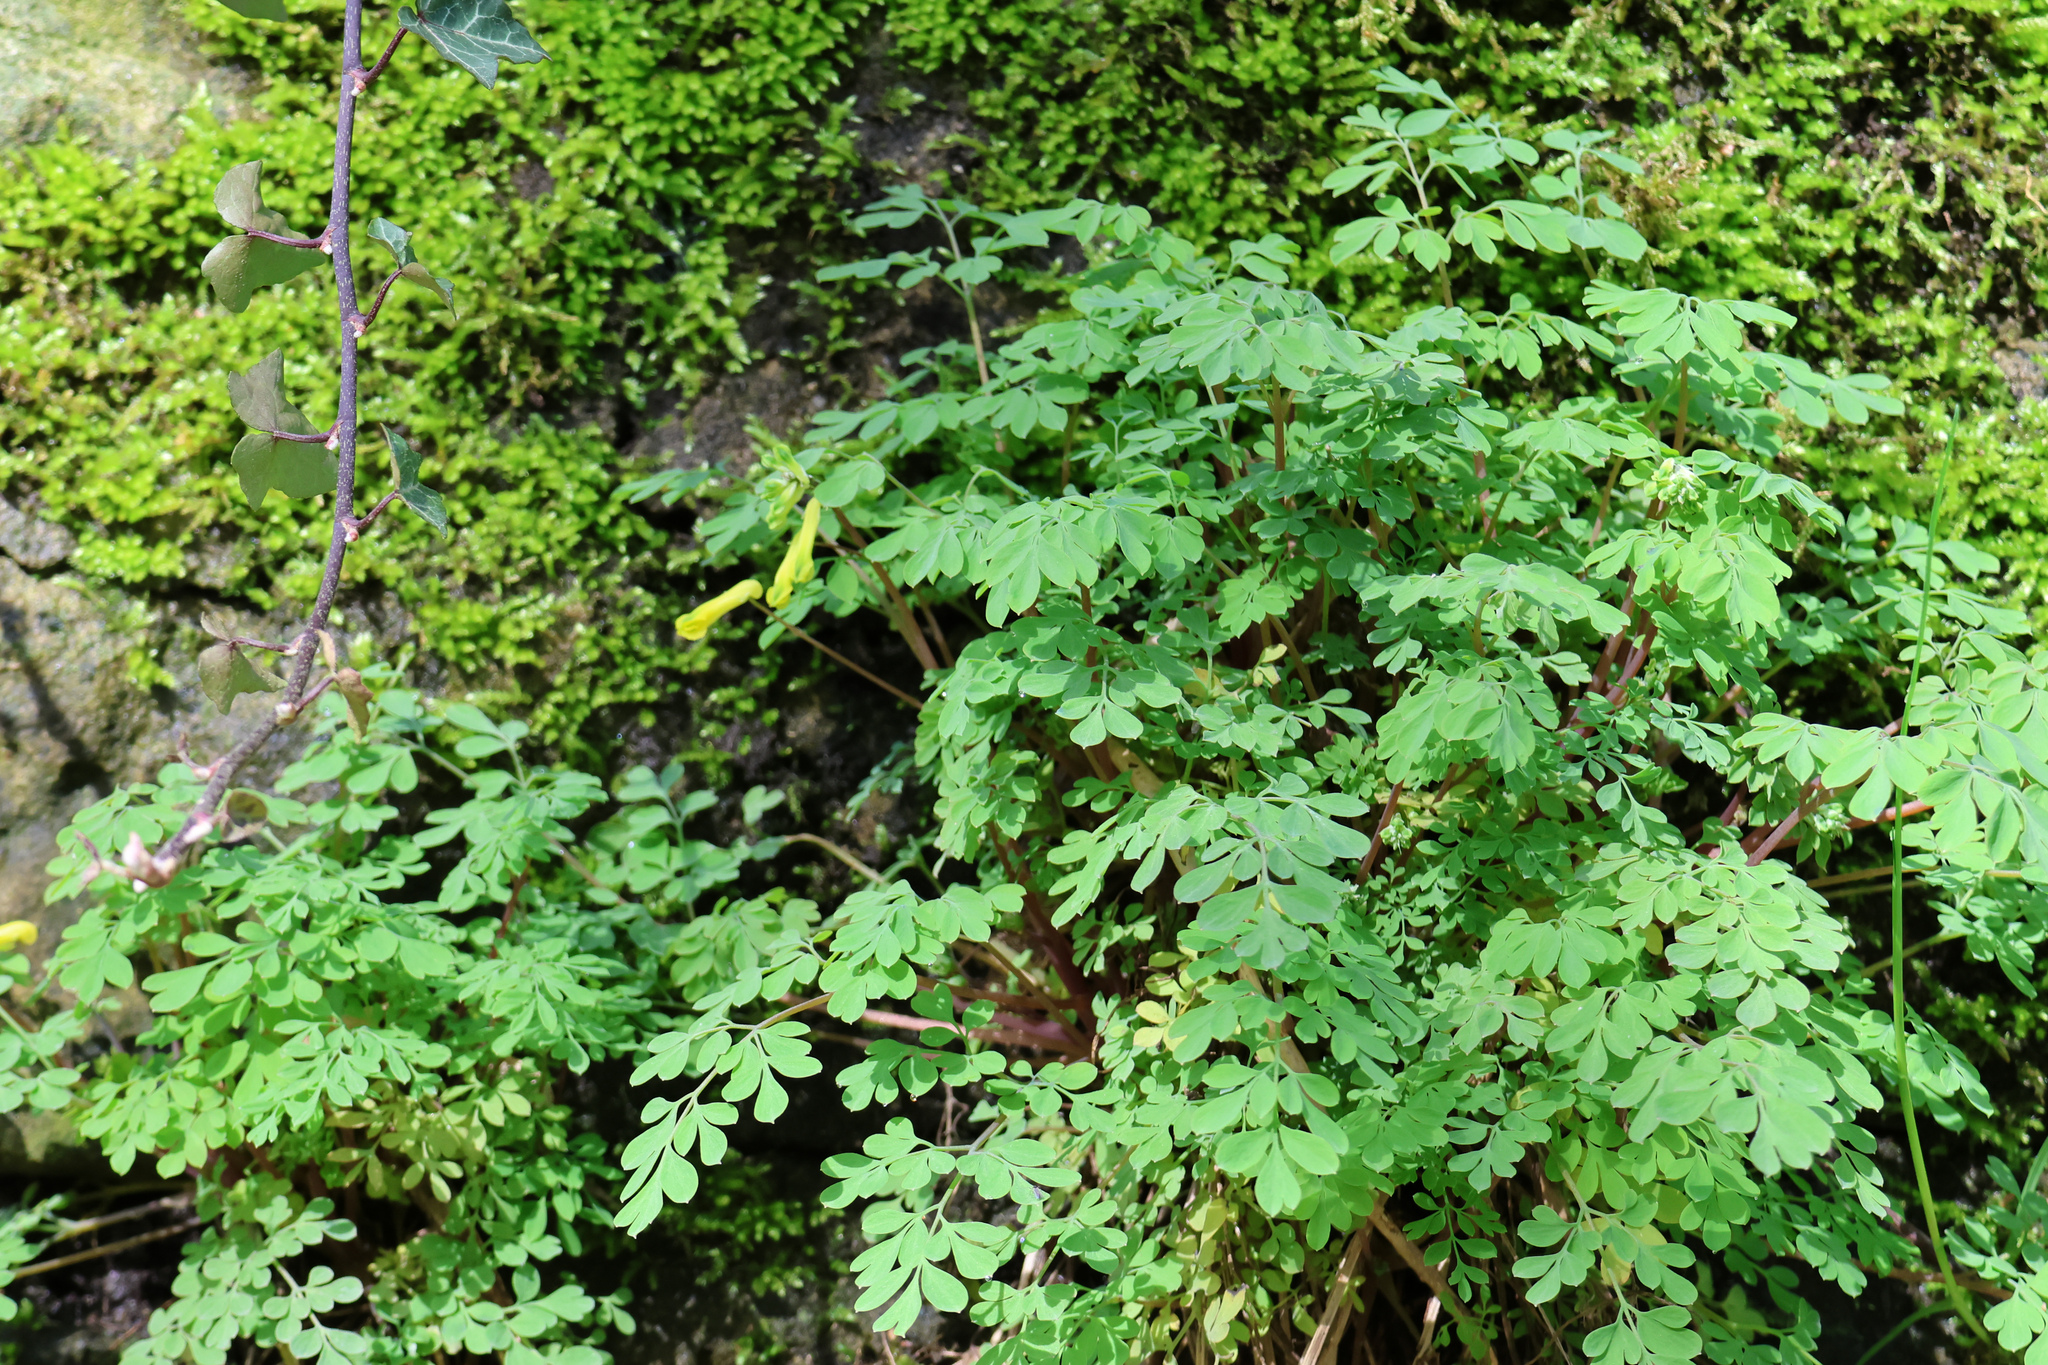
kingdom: Plantae
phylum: Tracheophyta
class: Magnoliopsida
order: Ranunculales
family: Papaveraceae
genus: Pseudofumaria
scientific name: Pseudofumaria lutea
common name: Yellow corydalis
